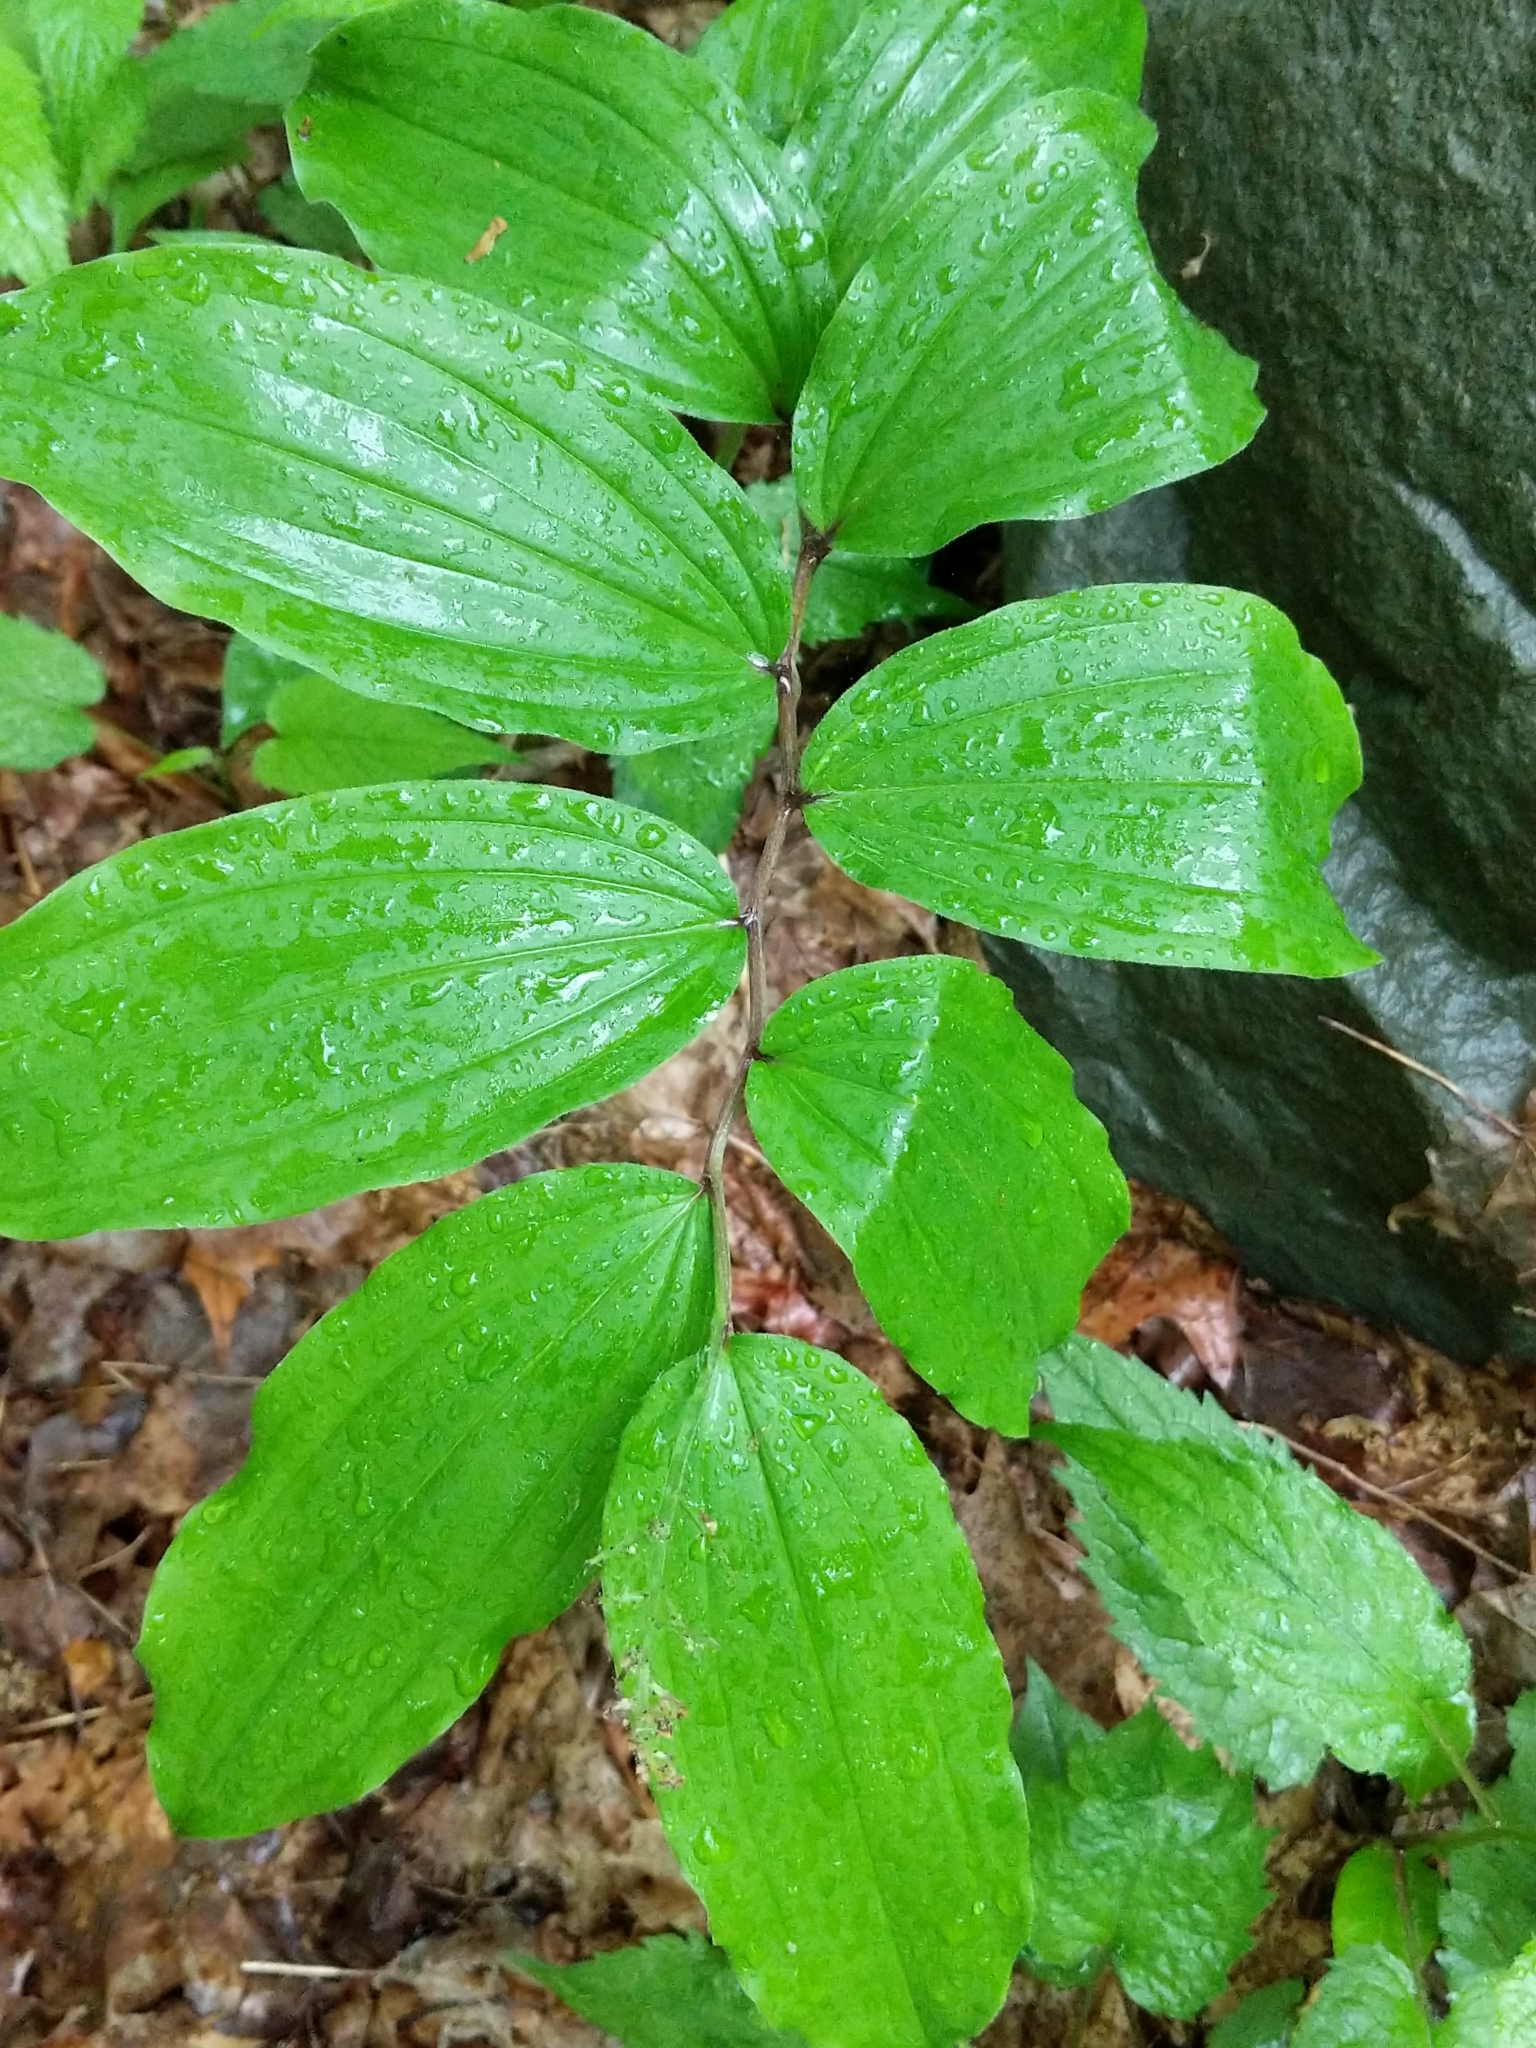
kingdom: Plantae
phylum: Tracheophyta
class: Liliopsida
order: Asparagales
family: Asparagaceae
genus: Maianthemum
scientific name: Maianthemum racemosum
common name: False spikenard
